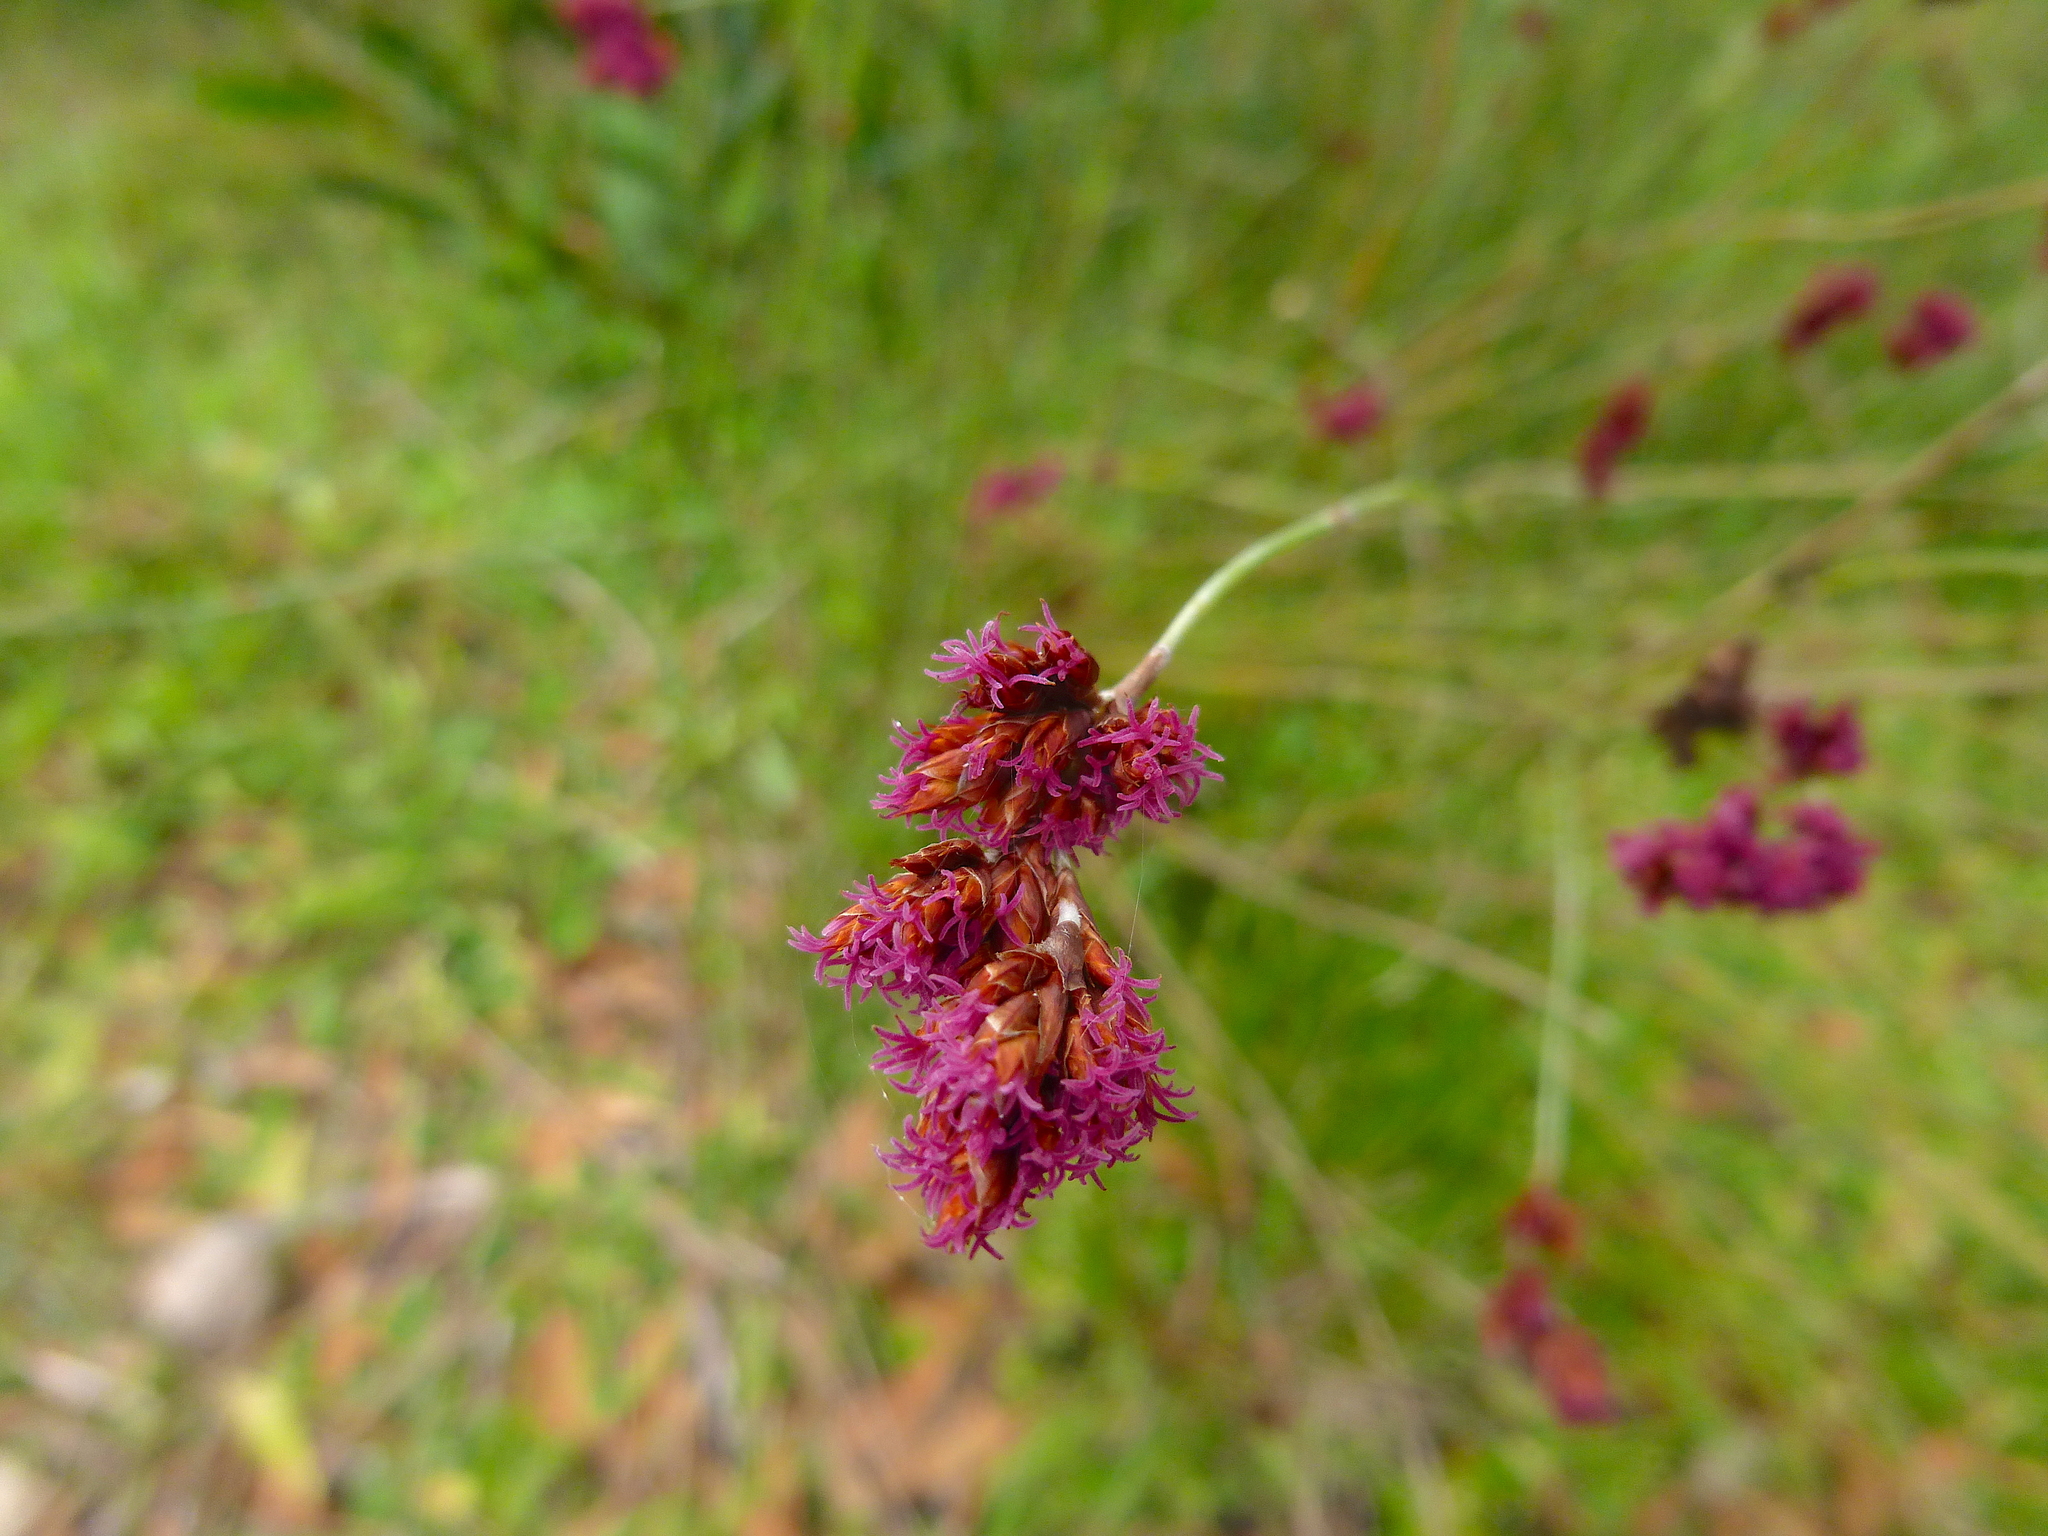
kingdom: Plantae
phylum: Tracheophyta
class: Liliopsida
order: Poales
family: Restionaceae
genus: Apodasmia
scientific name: Apodasmia brownii
